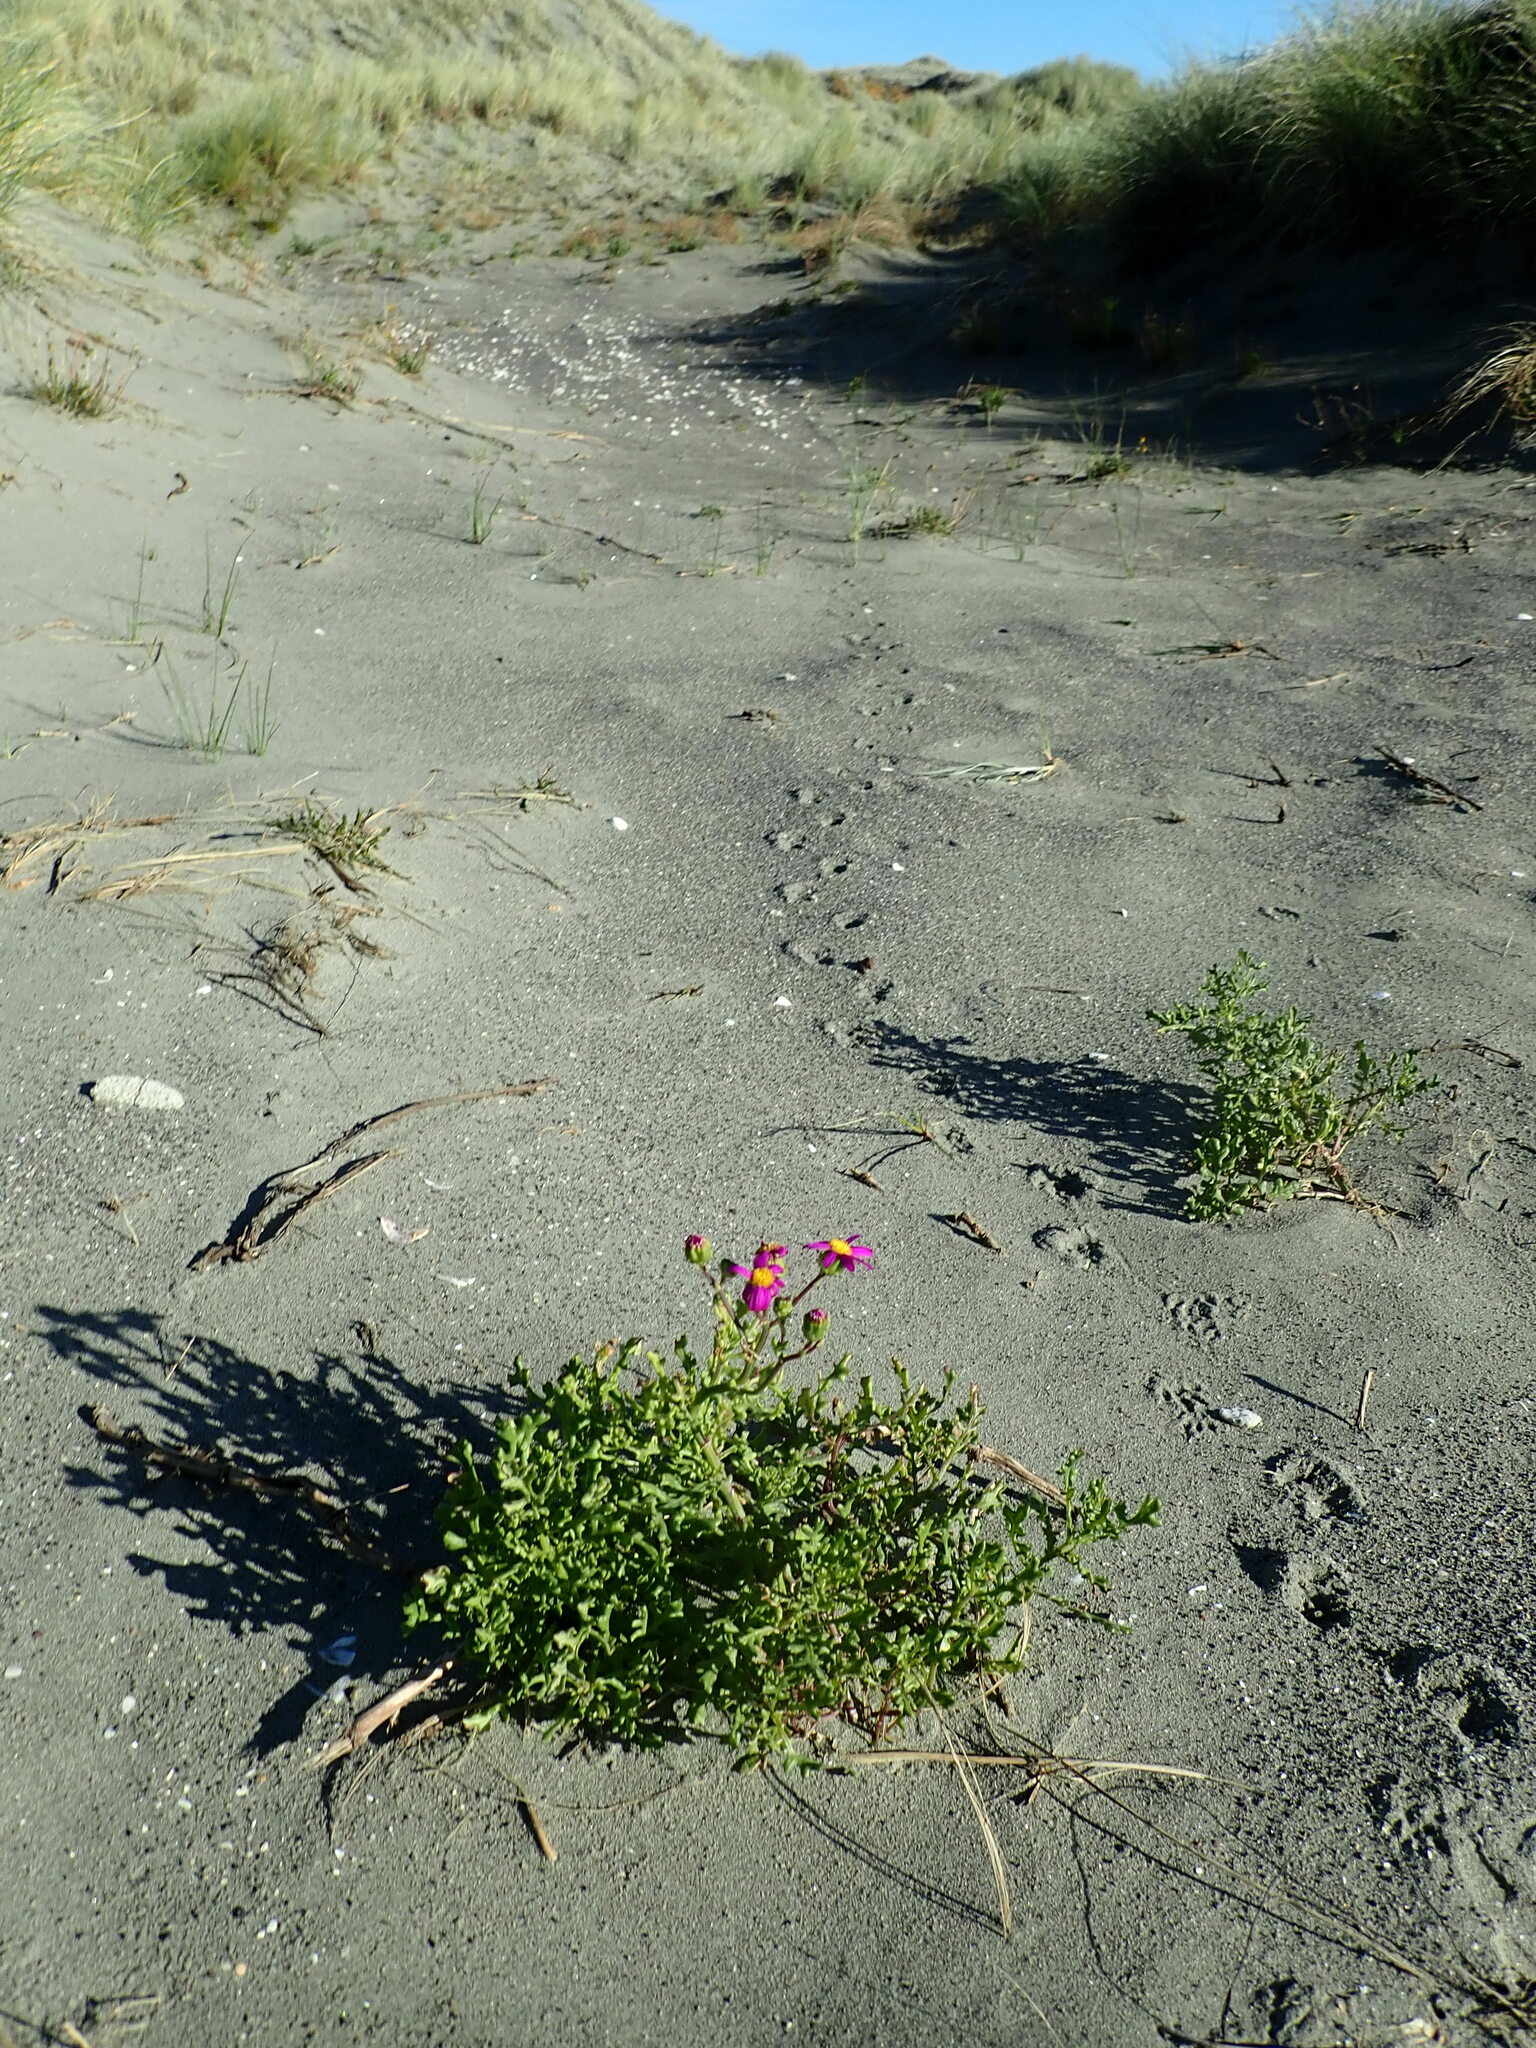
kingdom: Plantae
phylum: Tracheophyta
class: Magnoliopsida
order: Asterales
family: Asteraceae
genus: Senecio
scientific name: Senecio elegans
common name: Purple groundsel
